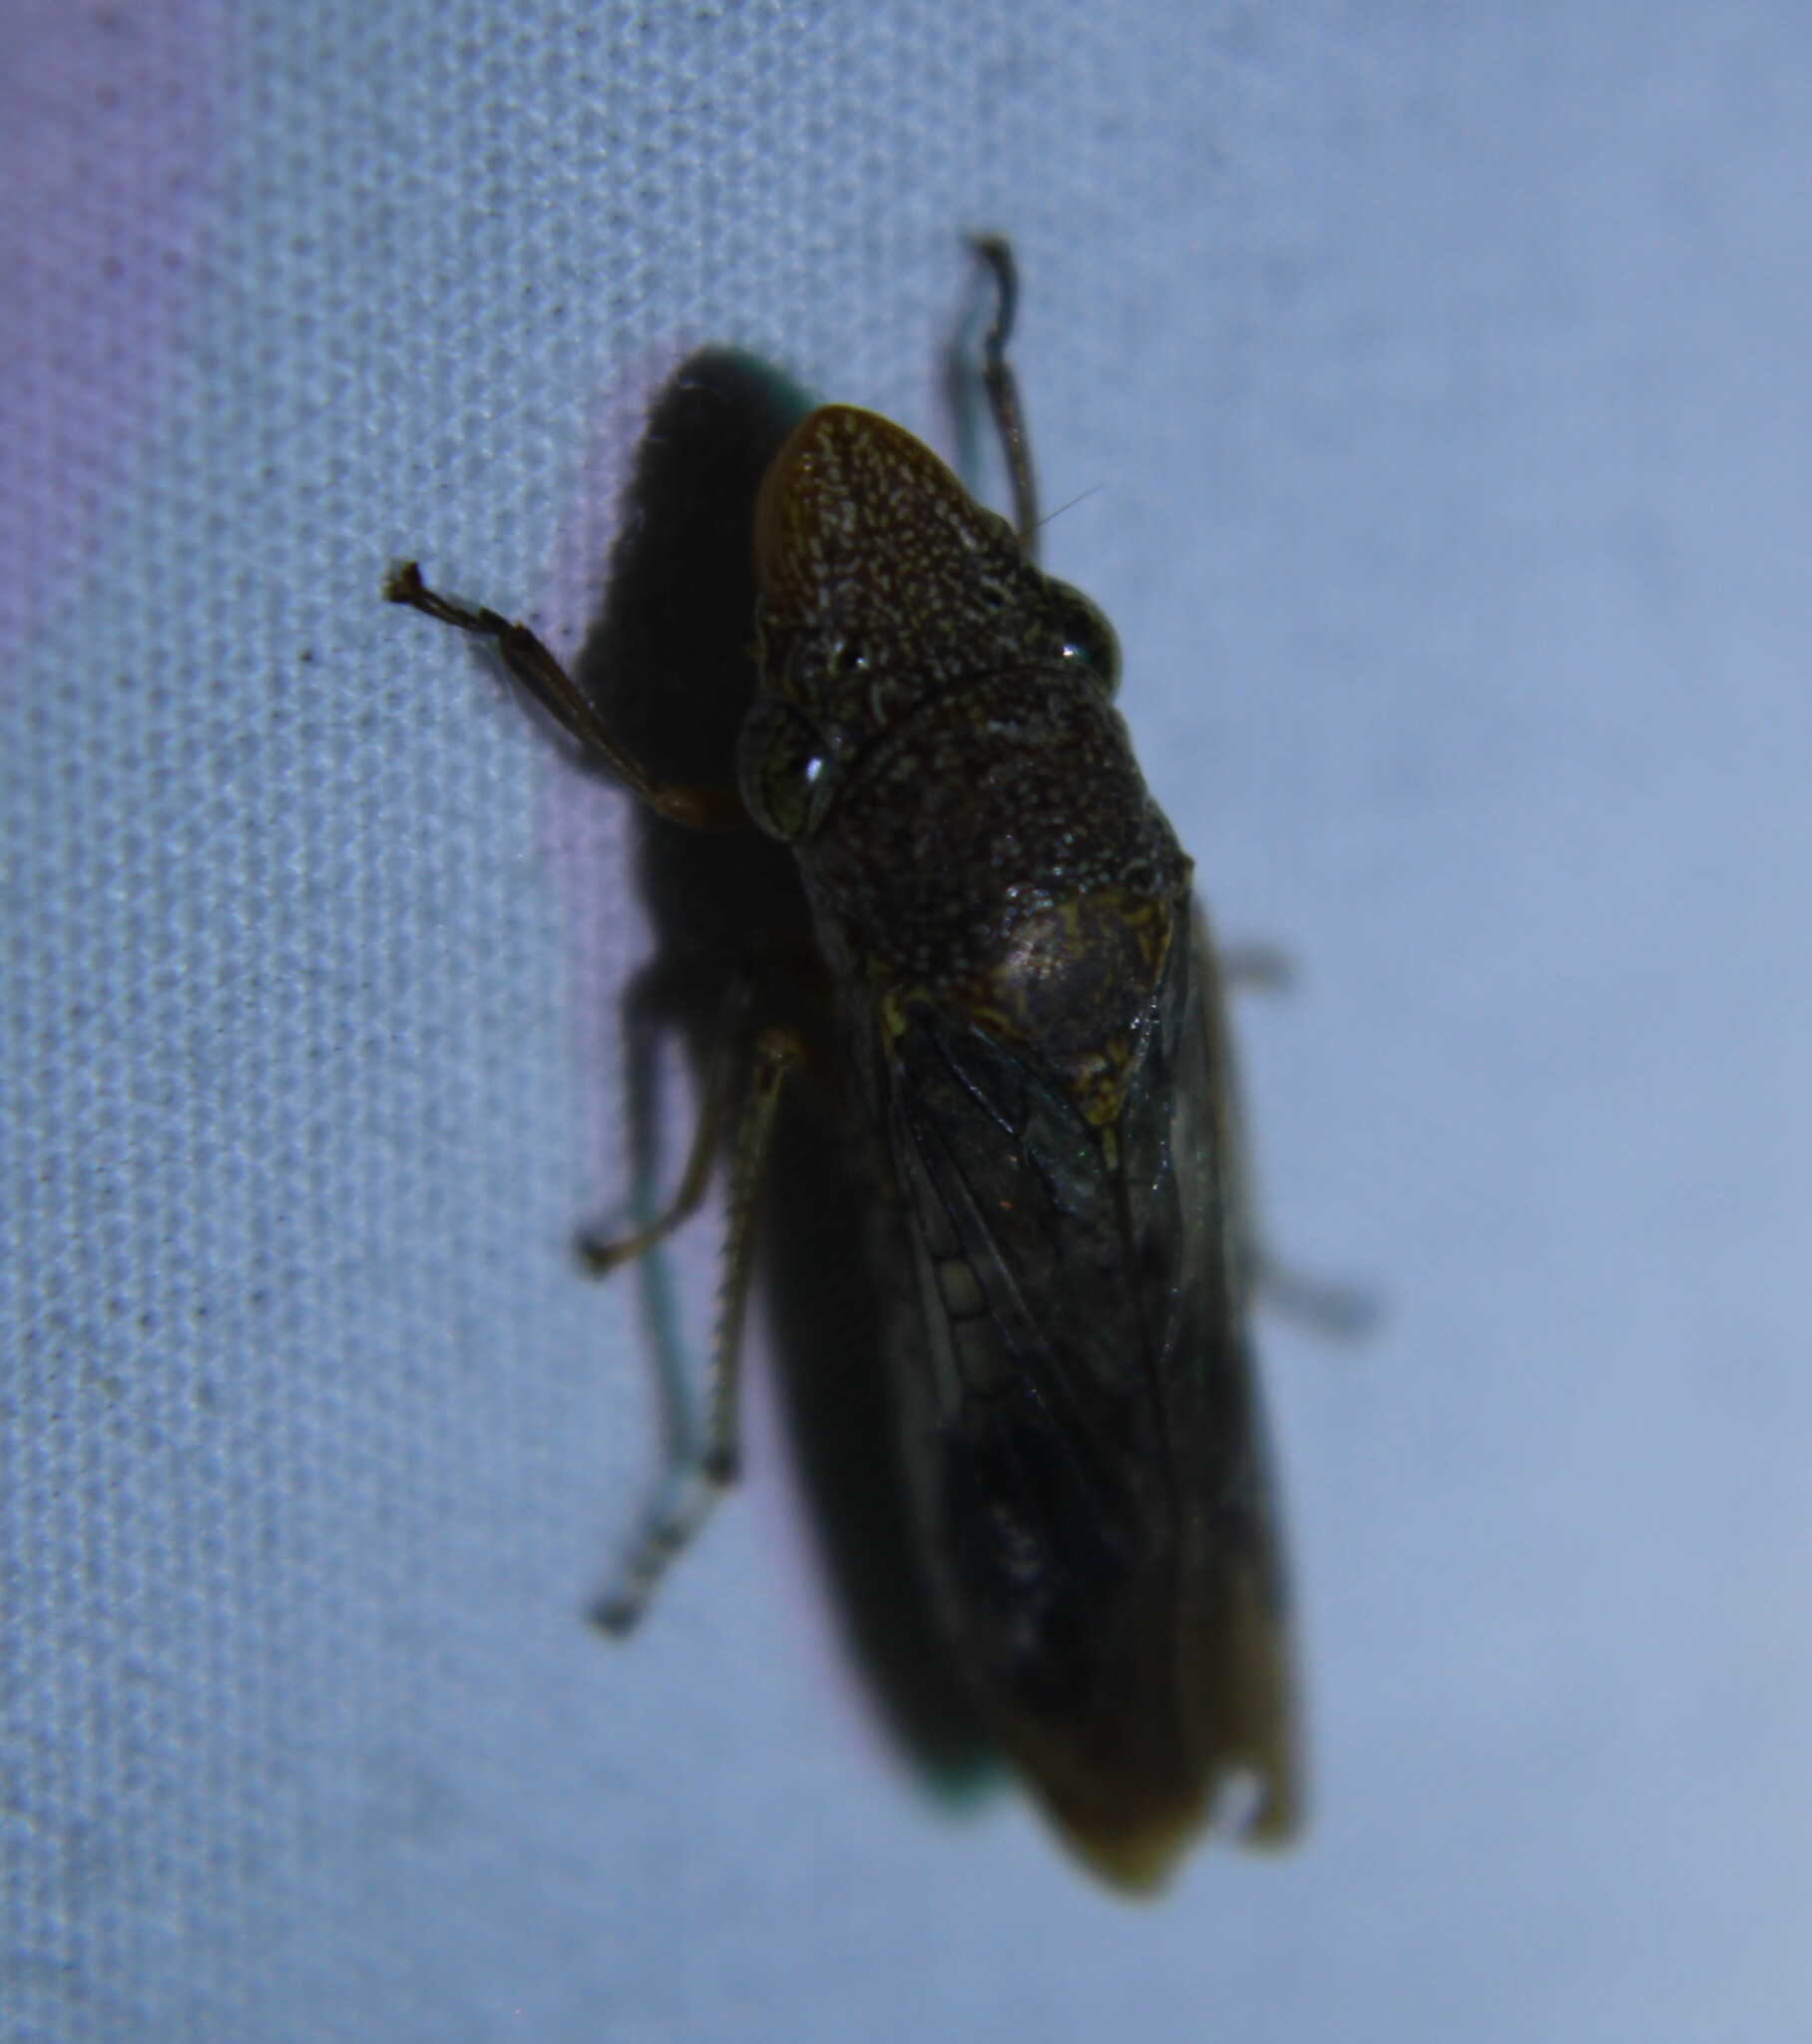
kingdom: Animalia
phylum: Arthropoda
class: Insecta
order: Hemiptera
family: Cicadellidae
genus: Homalodisca
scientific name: Homalodisca vitripennis
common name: Glassy-winged sharpshooter
